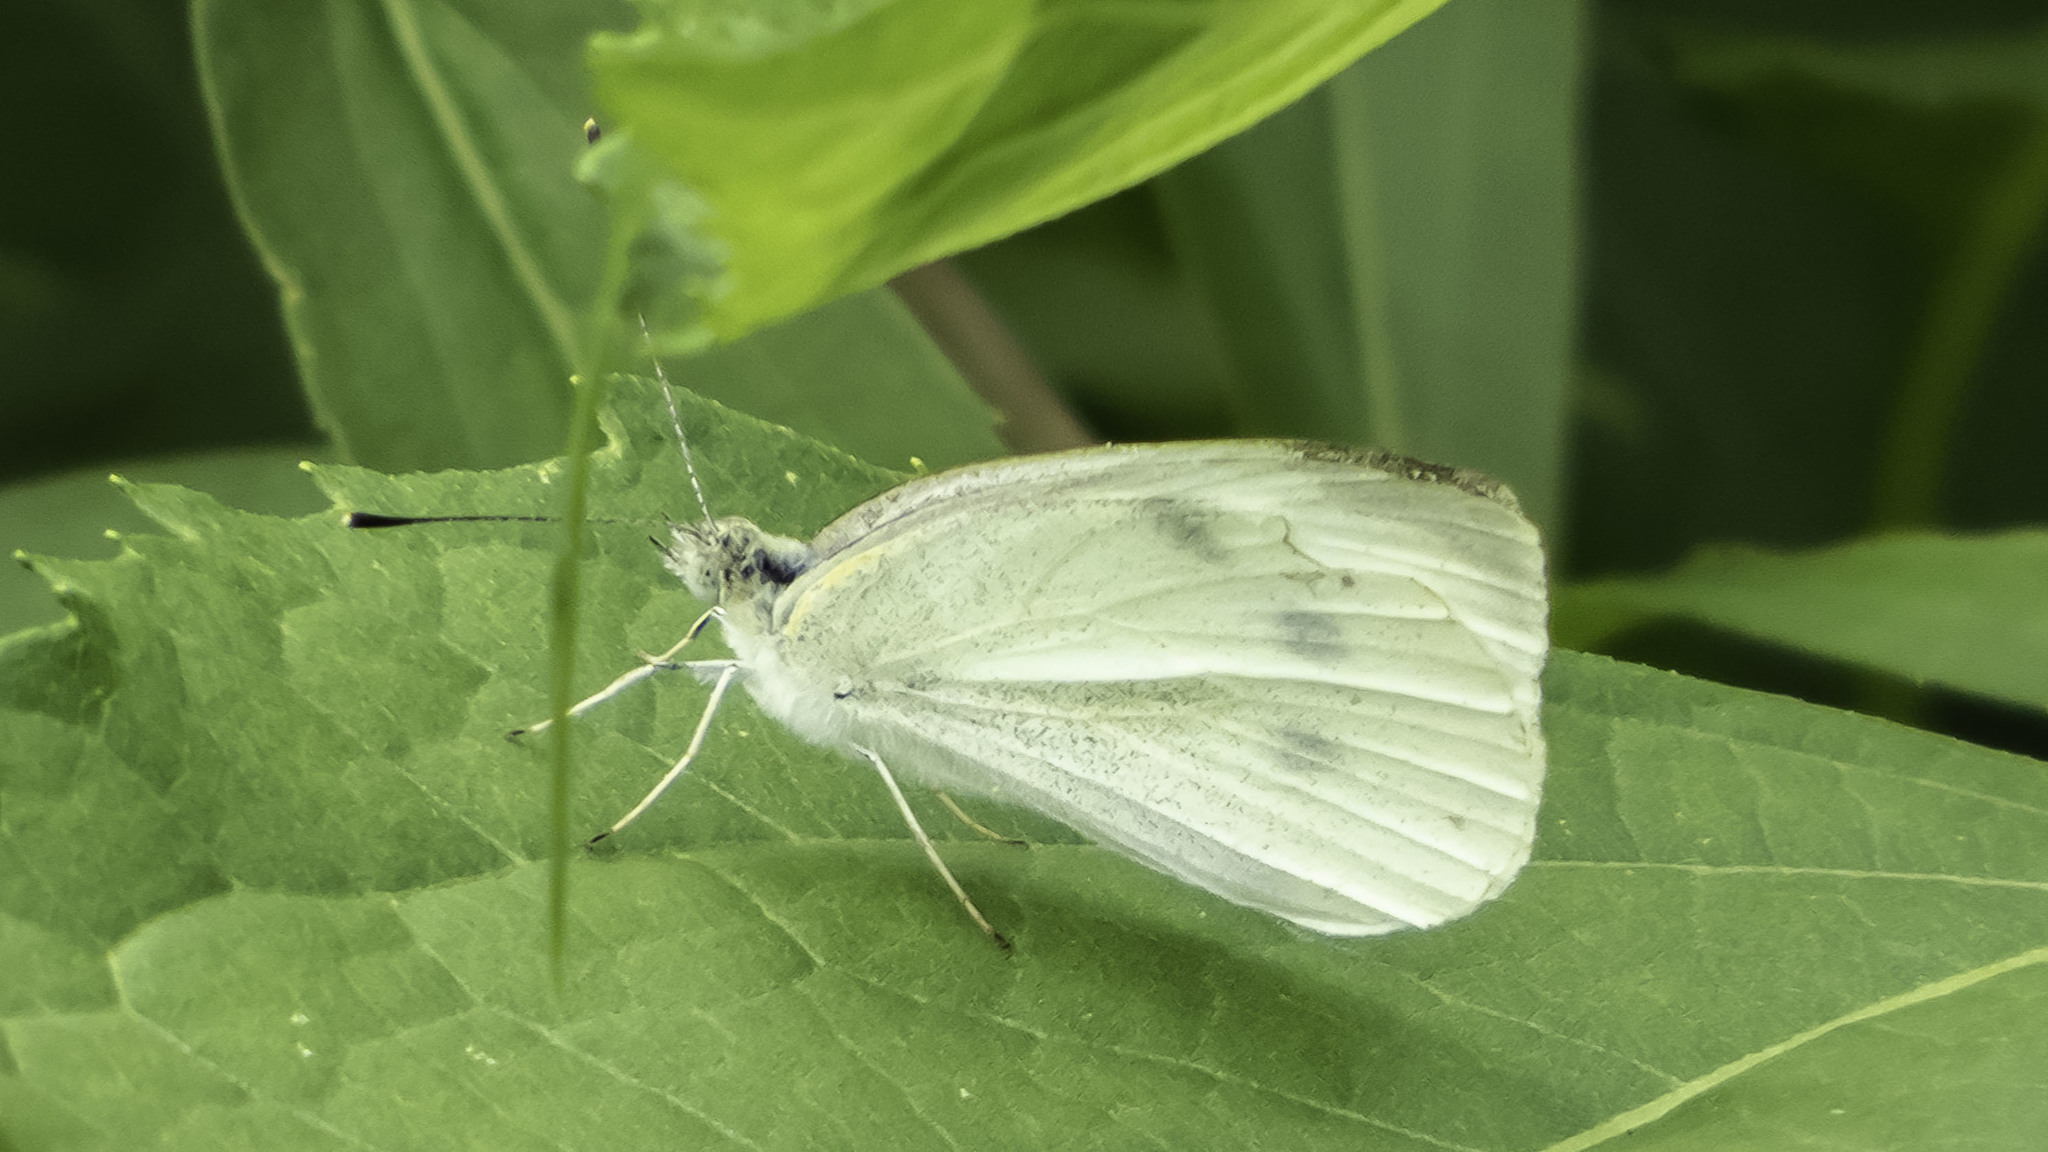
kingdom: Animalia
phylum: Arthropoda
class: Insecta
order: Lepidoptera
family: Pieridae
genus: Pieris
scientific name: Pieris rapae
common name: Small white
